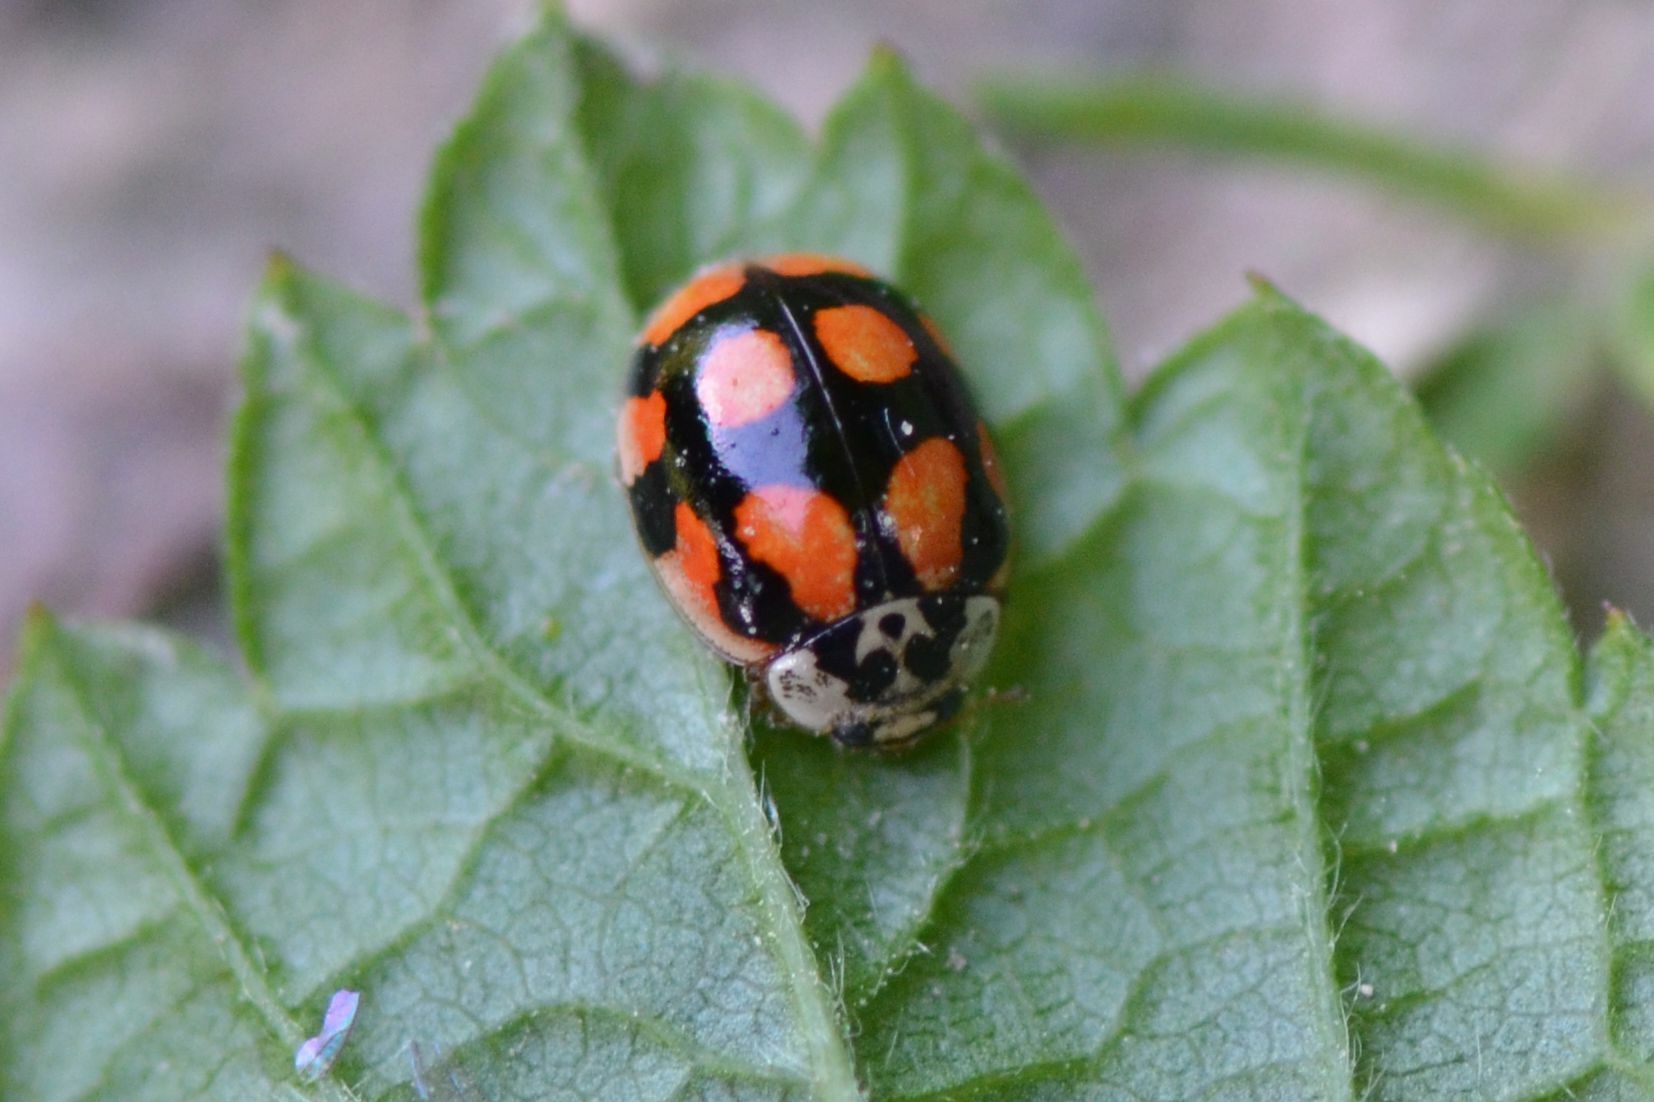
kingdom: Animalia
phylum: Arthropoda
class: Insecta
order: Coleoptera
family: Coccinellidae
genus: Adalia
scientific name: Adalia decempunctata
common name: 10-spot ladybird
